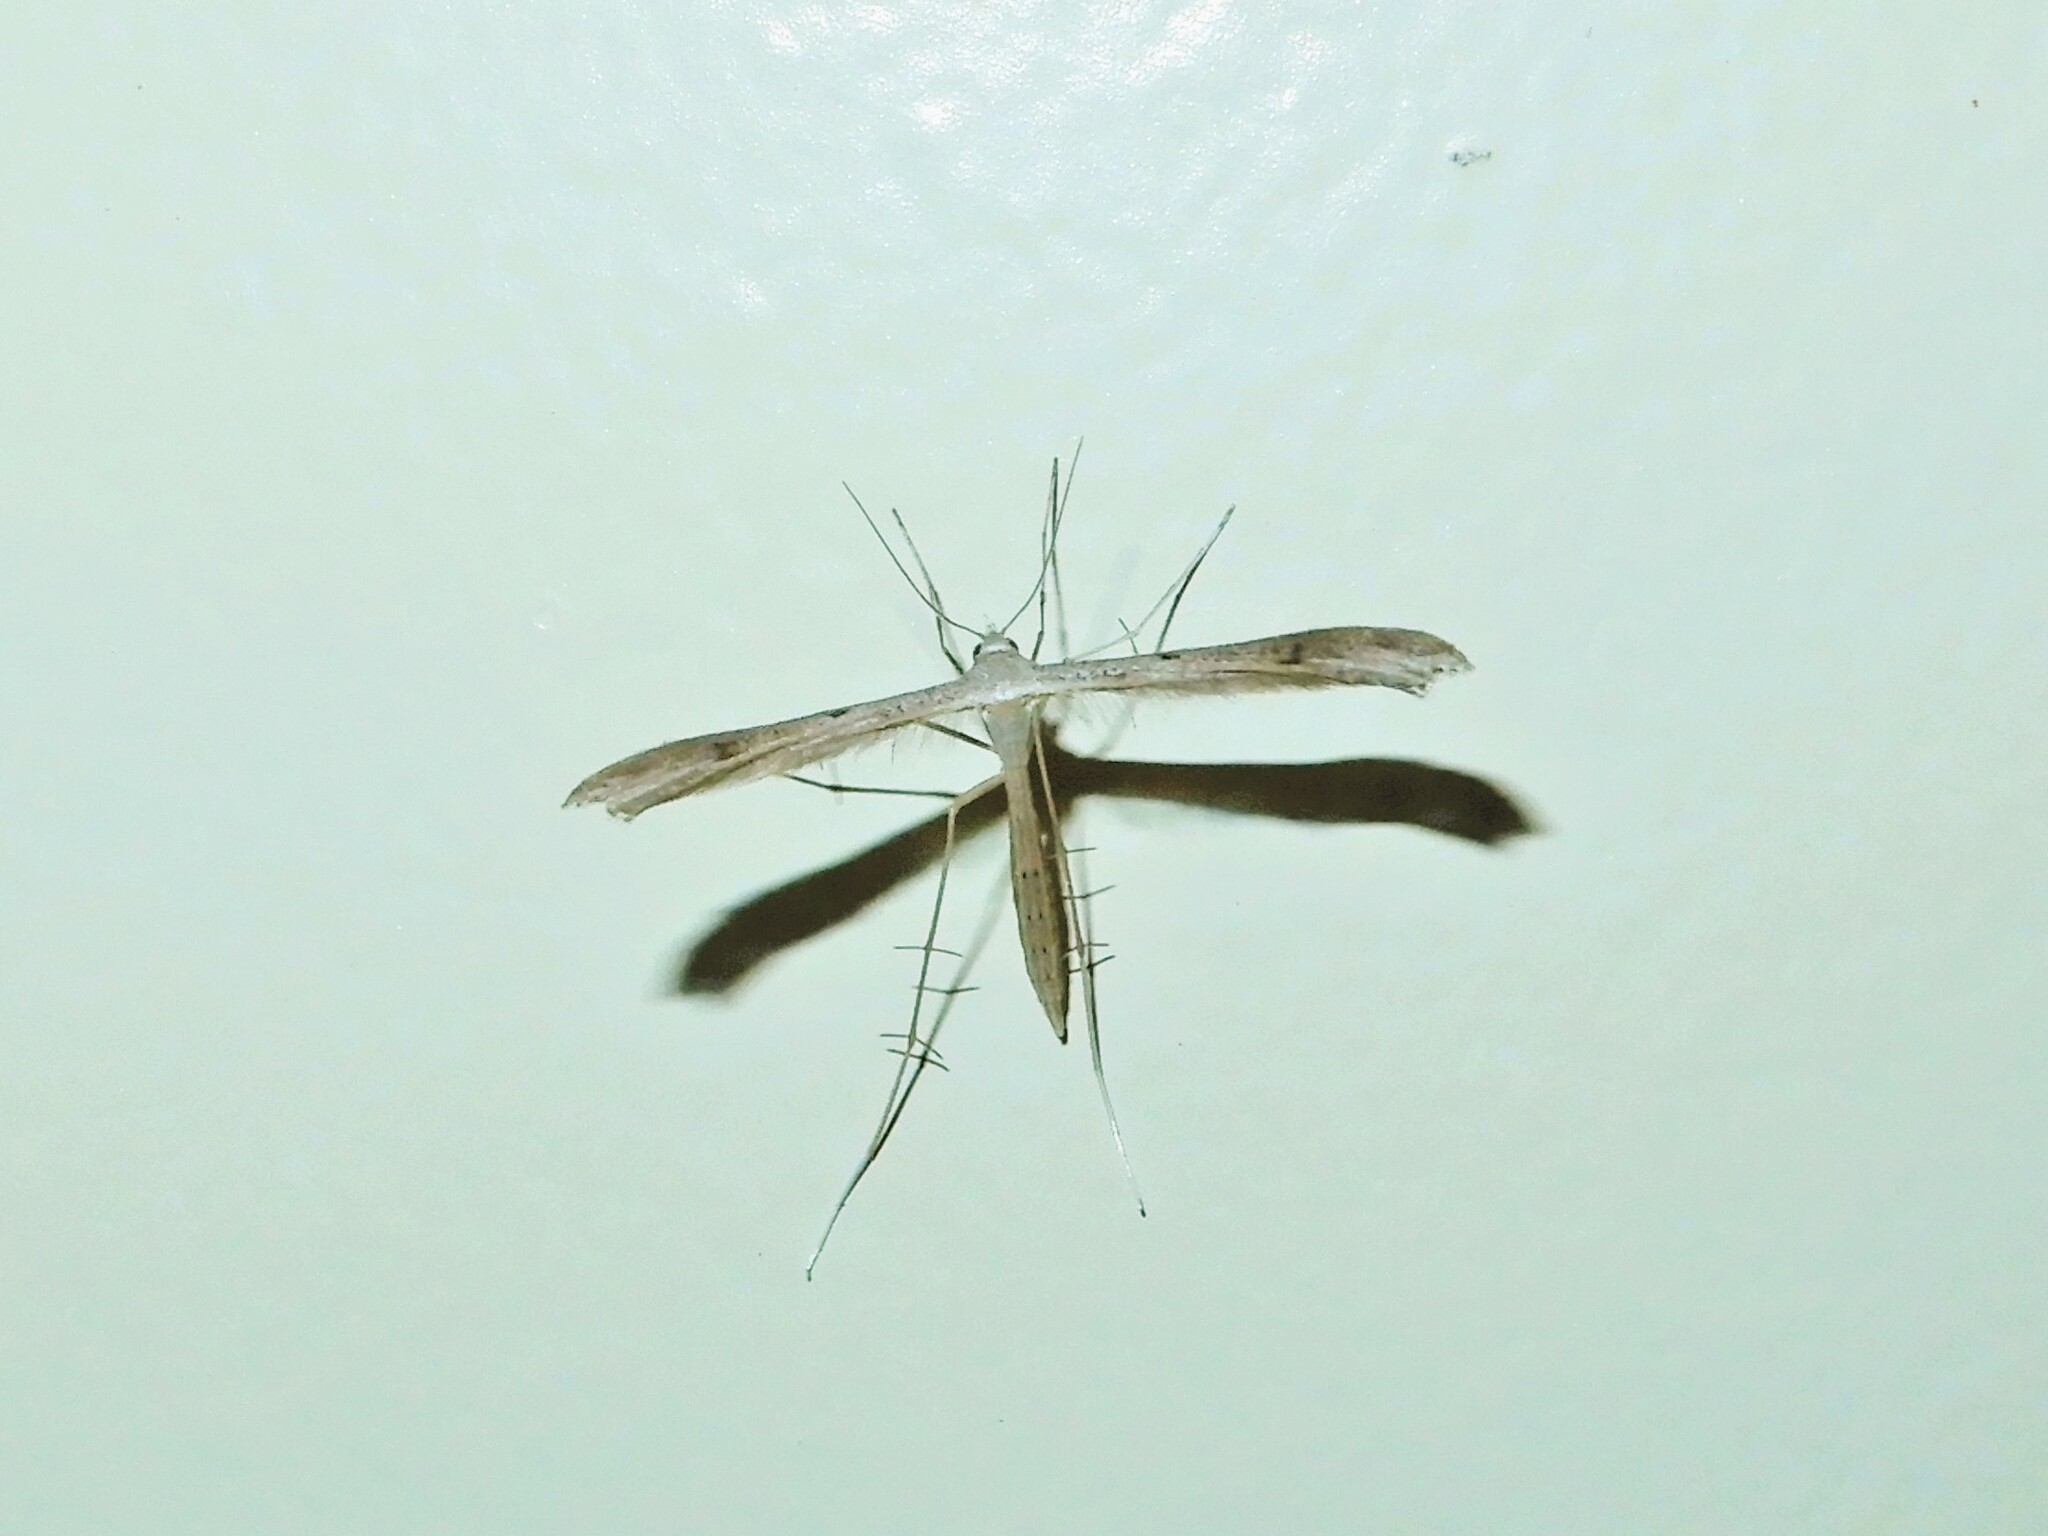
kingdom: Animalia
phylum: Arthropoda
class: Insecta
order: Lepidoptera
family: Pterophoridae
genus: Stenoptilia
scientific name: Stenoptilia zophodactylus
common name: Dowdy plume
